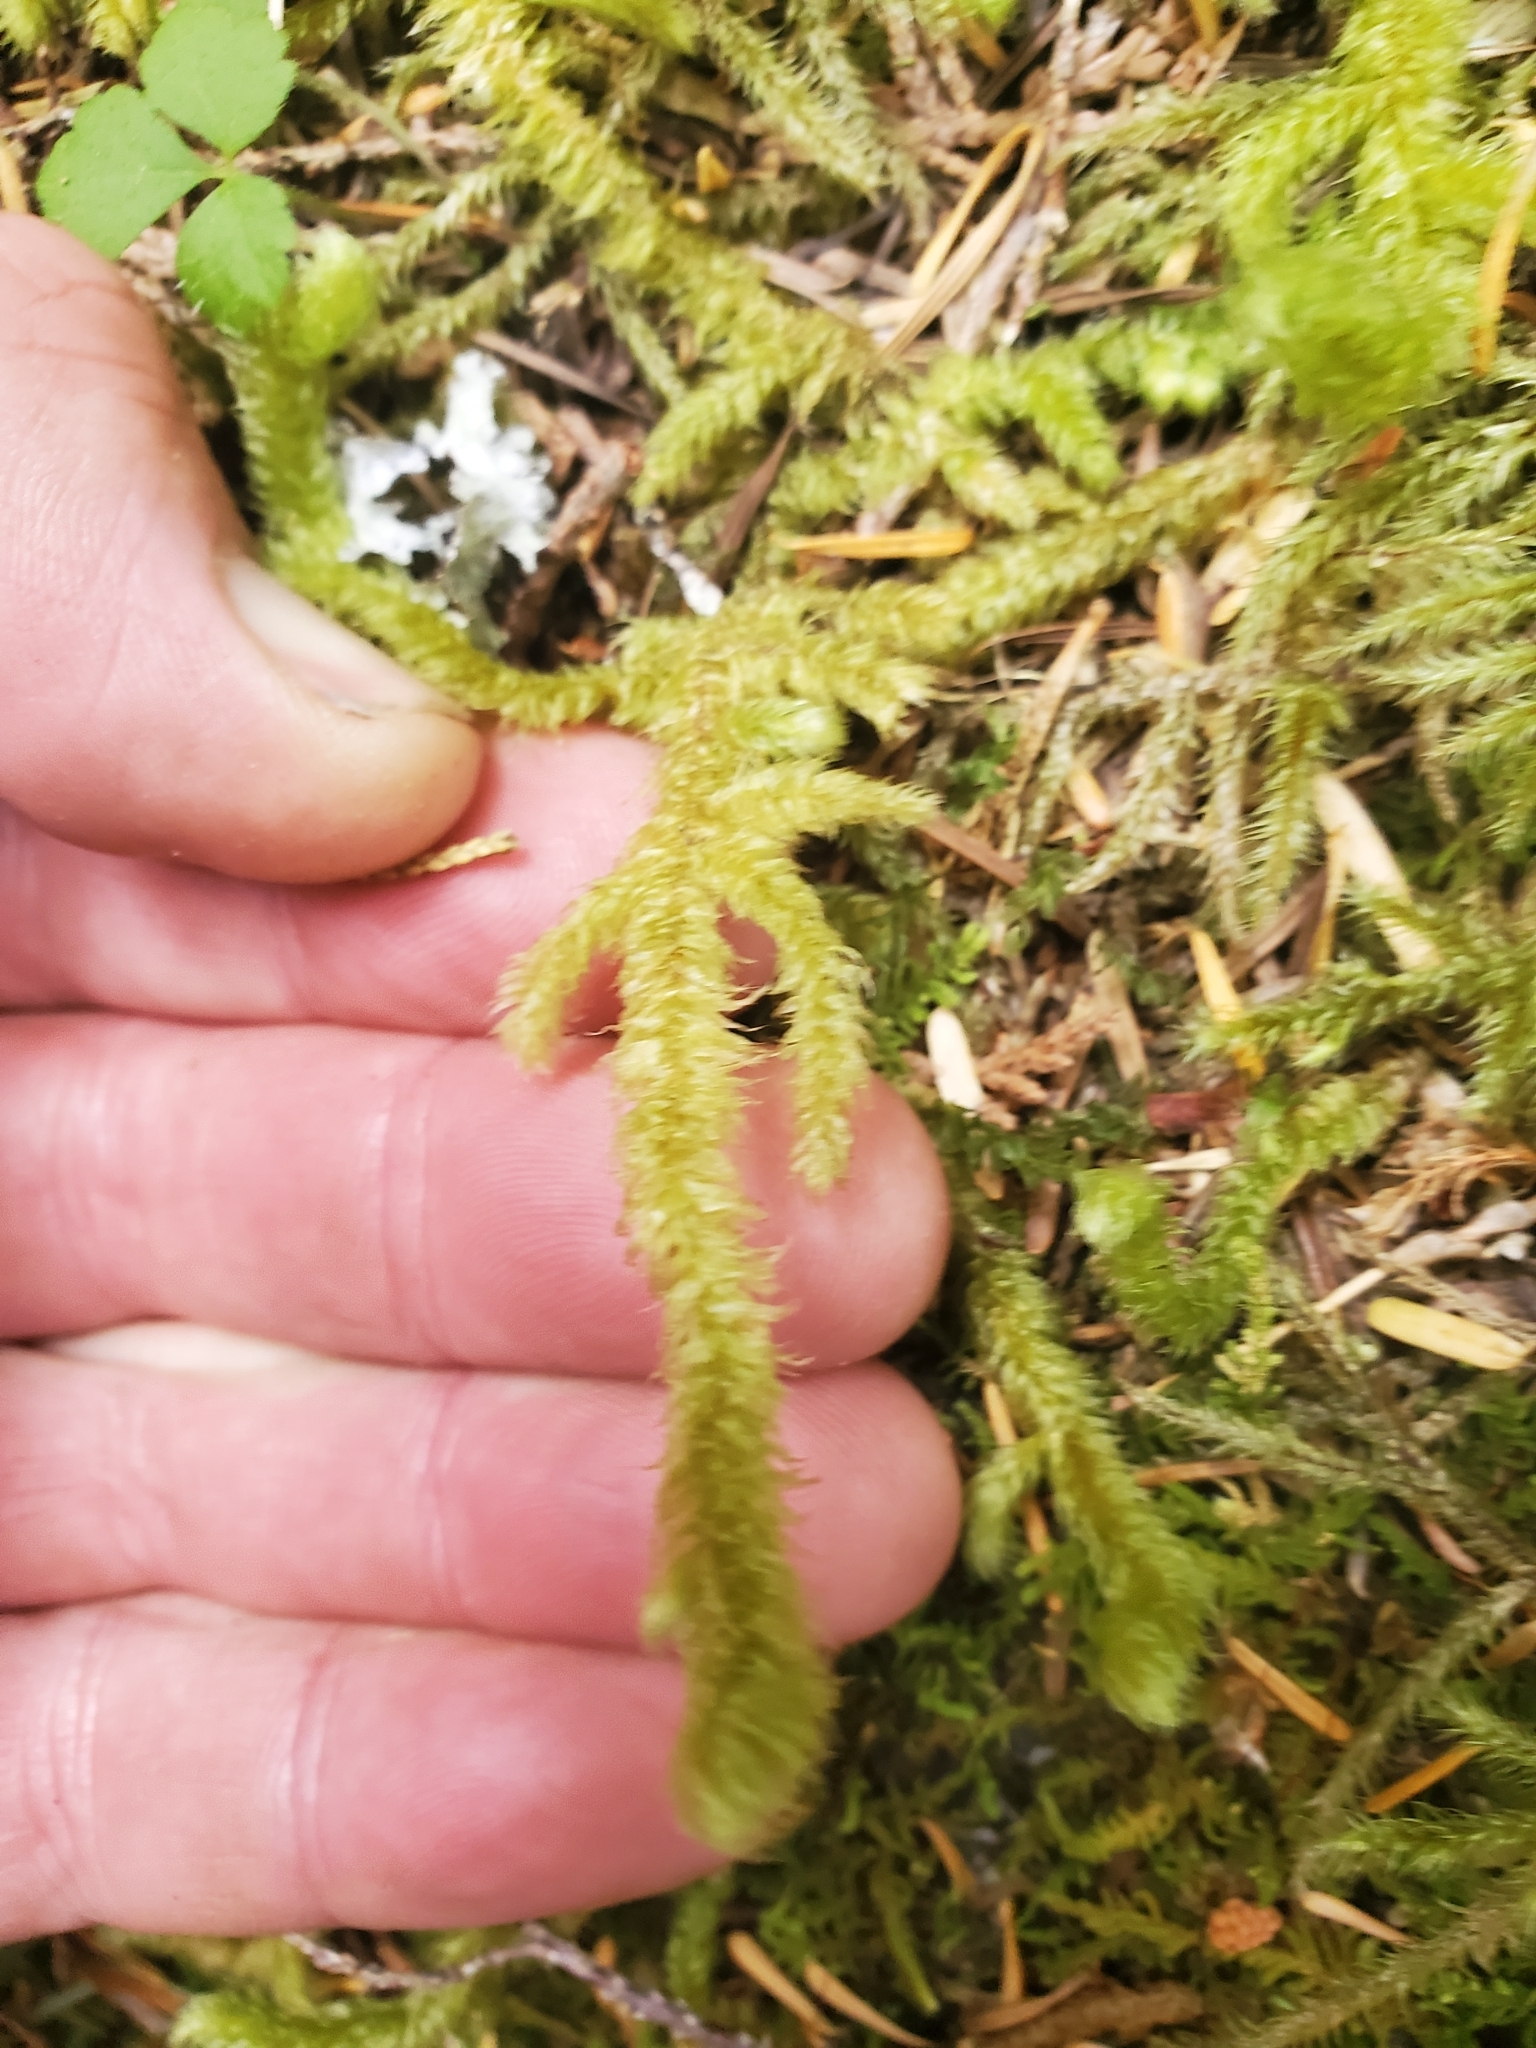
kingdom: Plantae
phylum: Bryophyta
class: Bryopsida
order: Hypnales
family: Hylocomiaceae
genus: Rhytidiopsis
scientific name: Rhytidiopsis robusta
